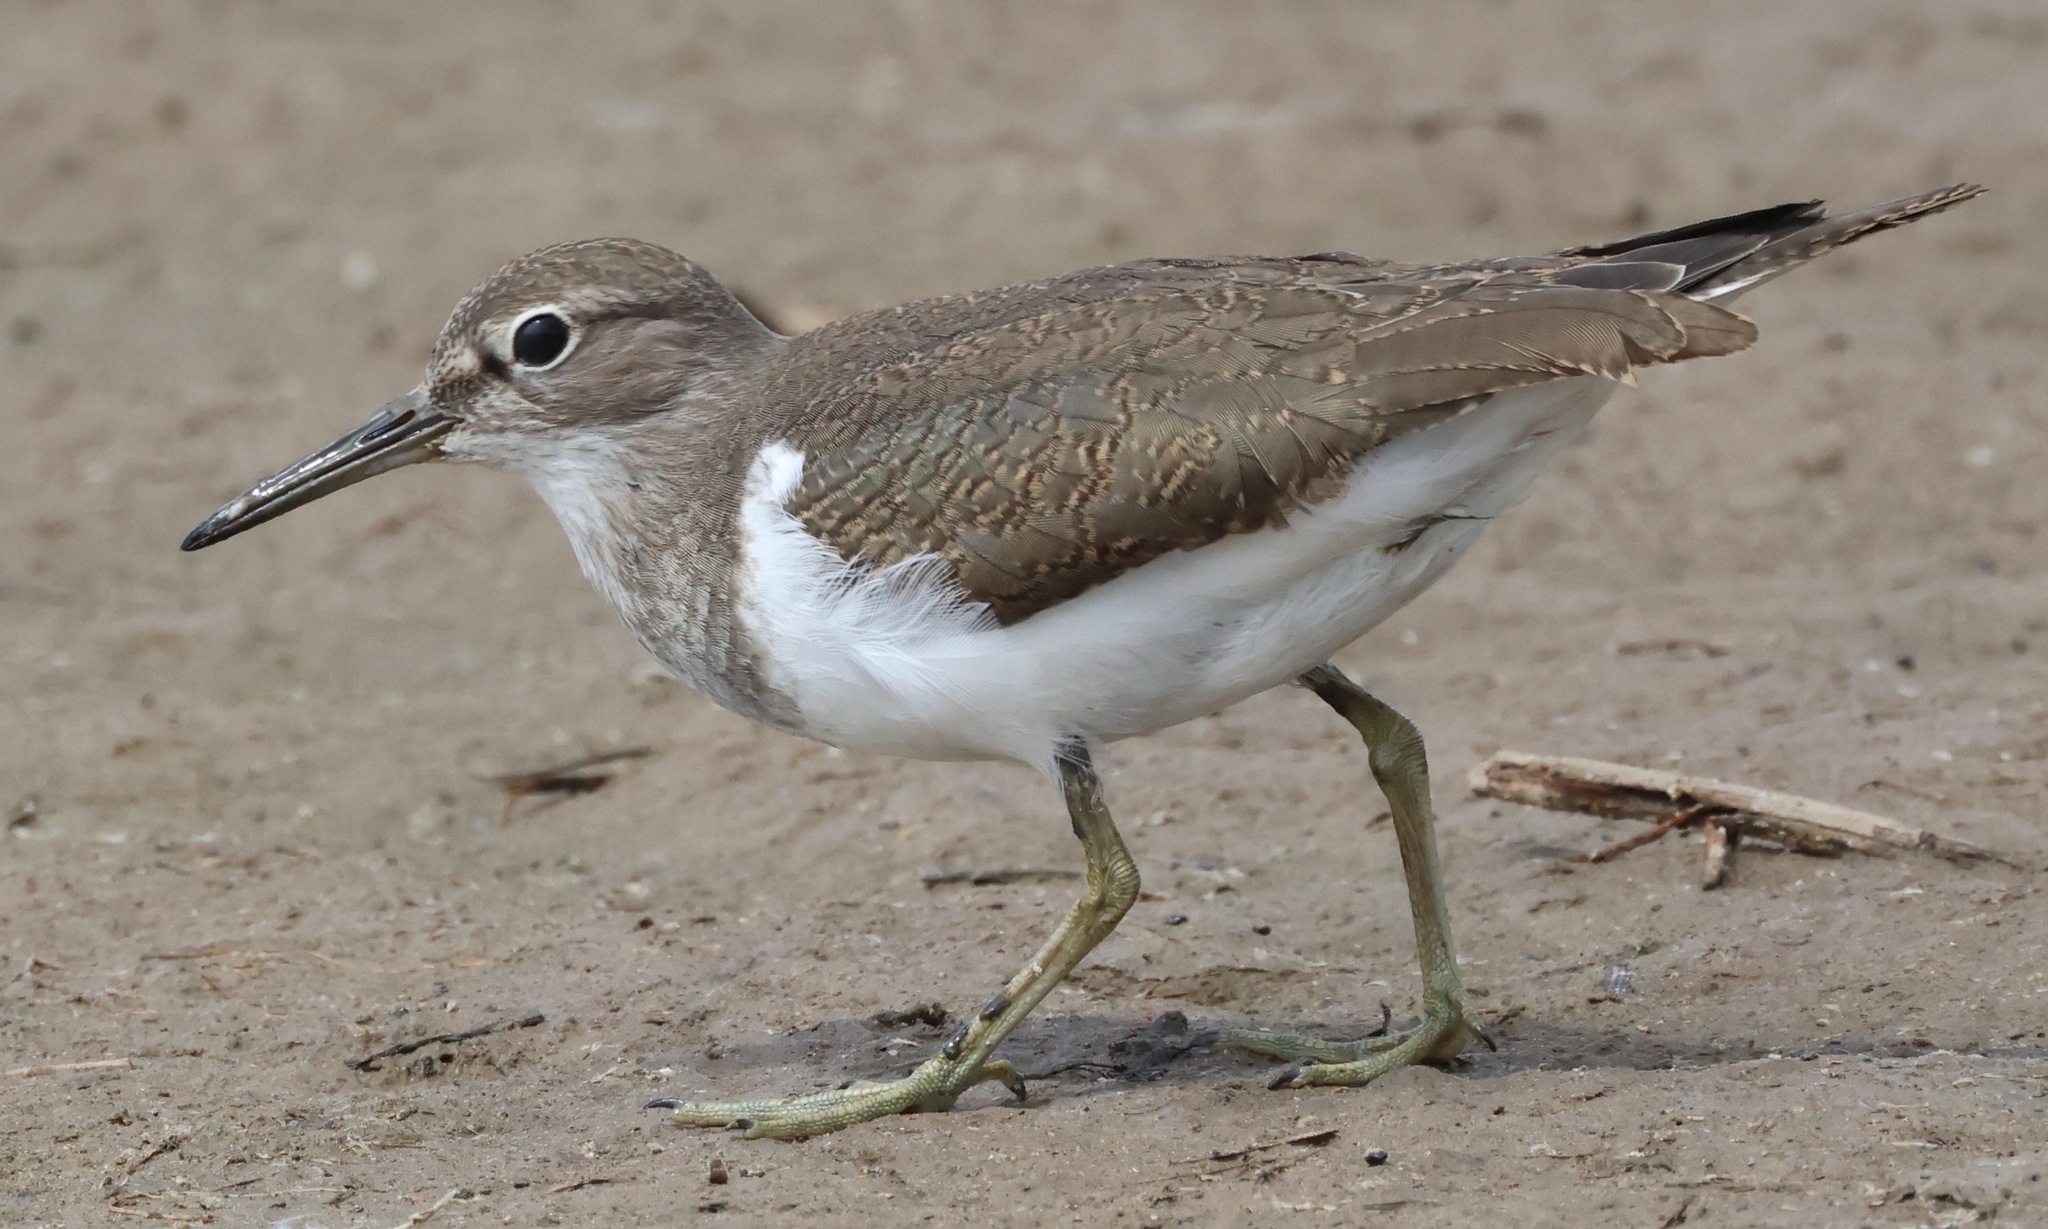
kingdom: Animalia
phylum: Chordata
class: Aves
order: Charadriiformes
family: Scolopacidae
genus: Actitis
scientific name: Actitis hypoleucos
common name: Common sandpiper
